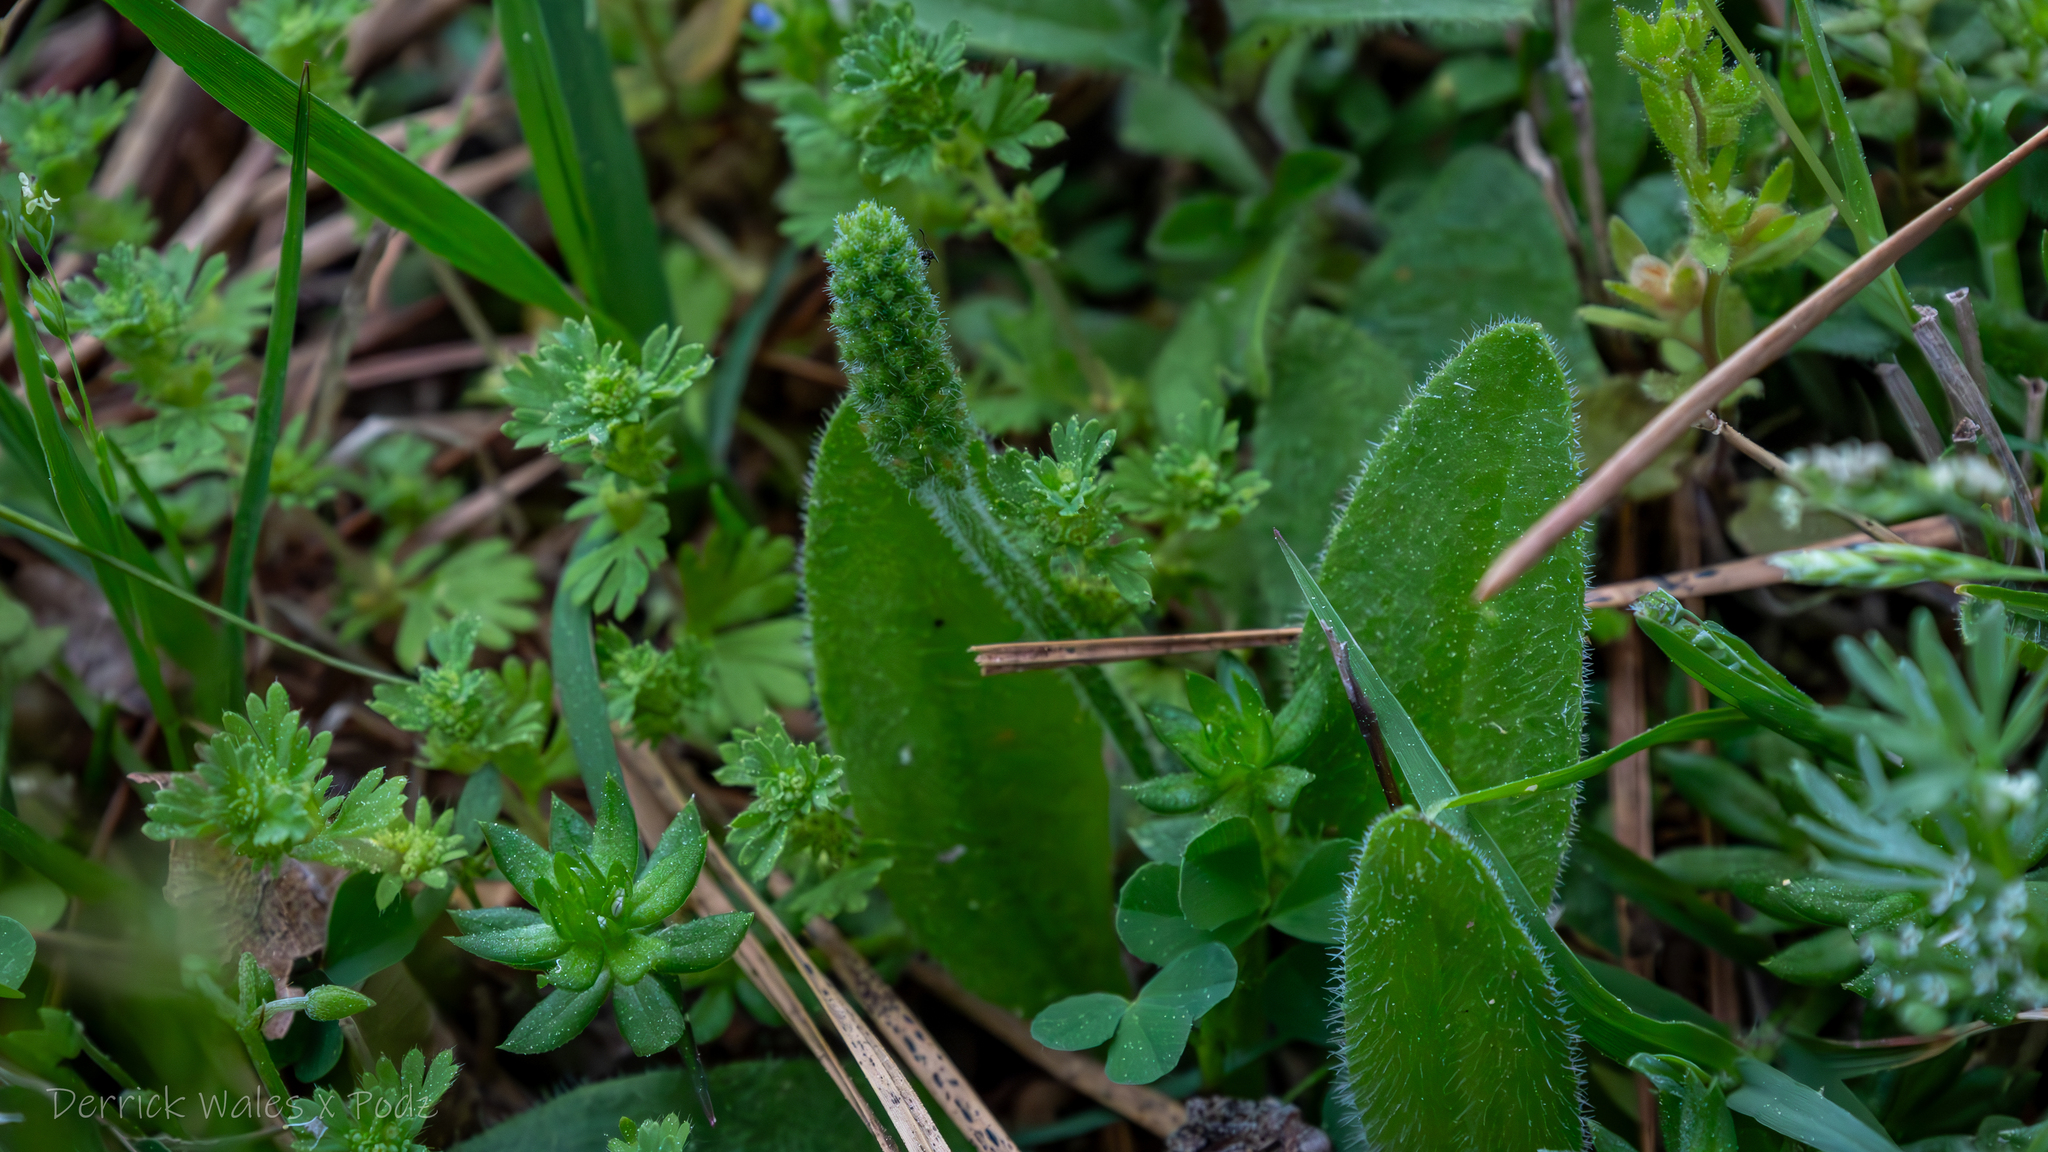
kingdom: Plantae
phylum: Tracheophyta
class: Magnoliopsida
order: Lamiales
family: Plantaginaceae
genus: Plantago
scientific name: Plantago virginica
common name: Hoary plantain
